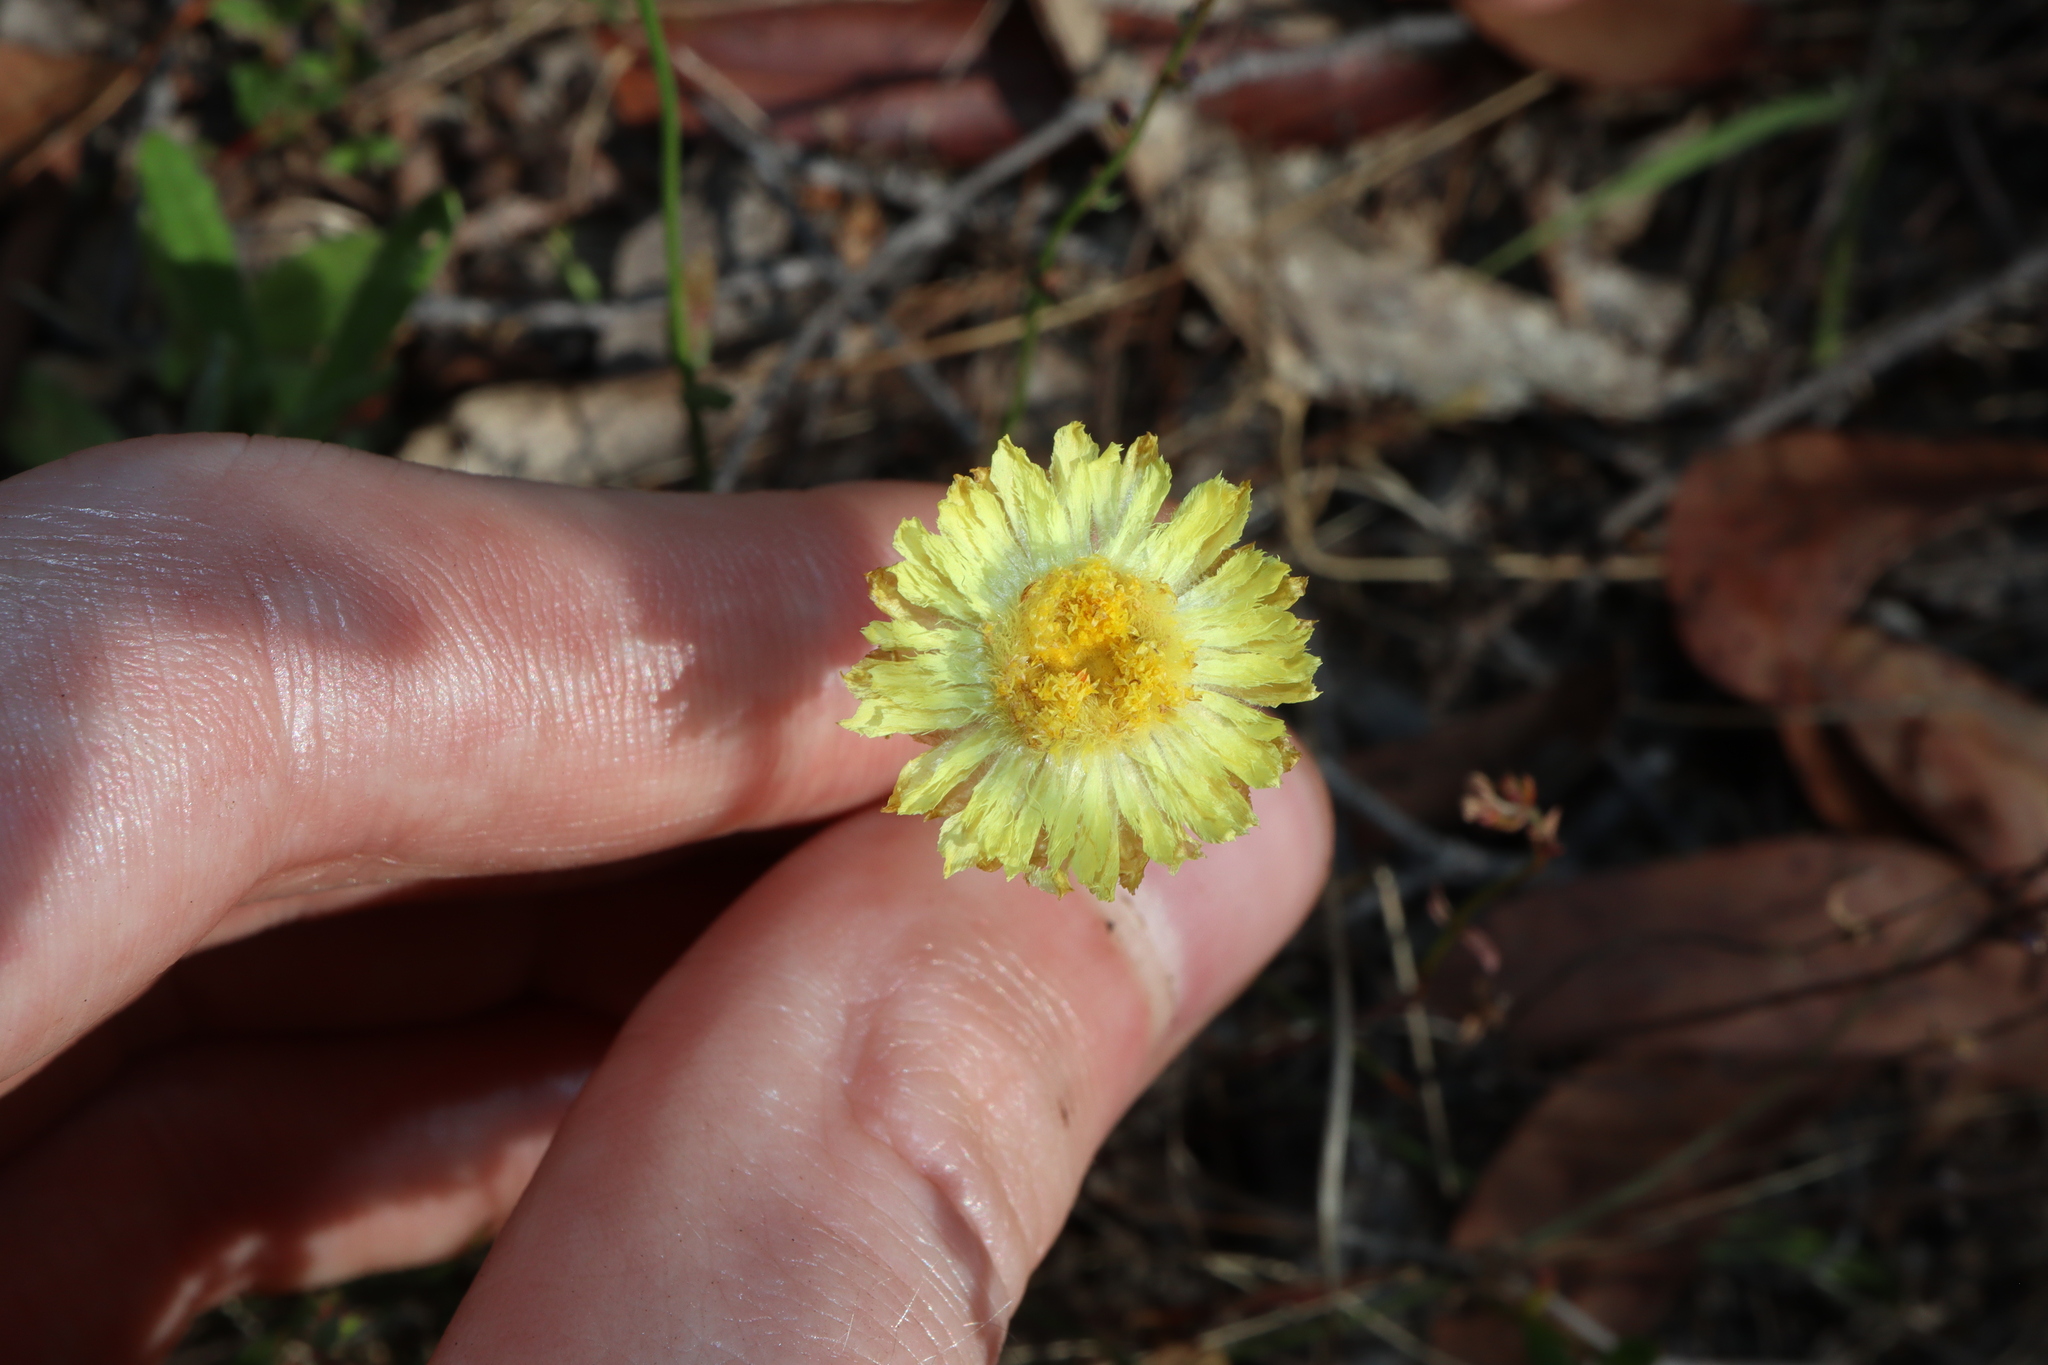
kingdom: Plantae
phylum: Tracheophyta
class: Magnoliopsida
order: Asterales
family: Asteraceae
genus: Coronidium
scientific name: Coronidium scorpioides
